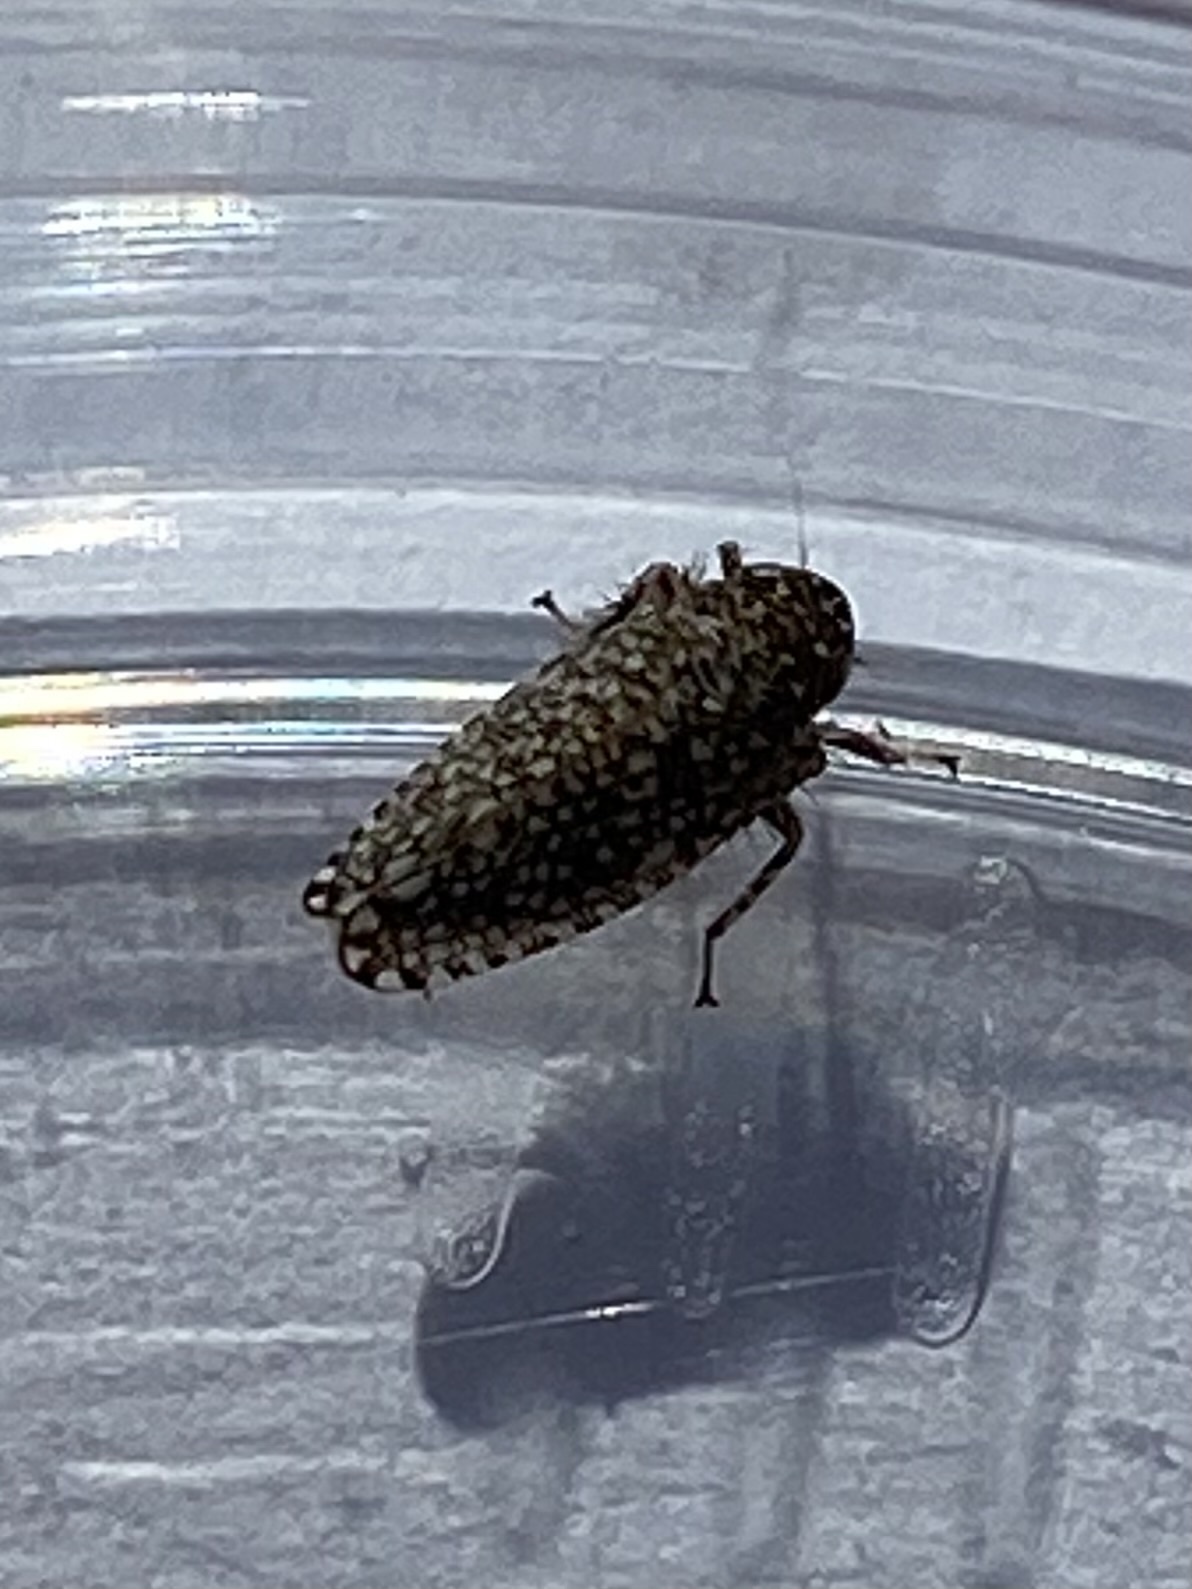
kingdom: Animalia
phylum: Arthropoda
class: Insecta
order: Hemiptera
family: Cicadellidae
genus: Texananus
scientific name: Texananus
